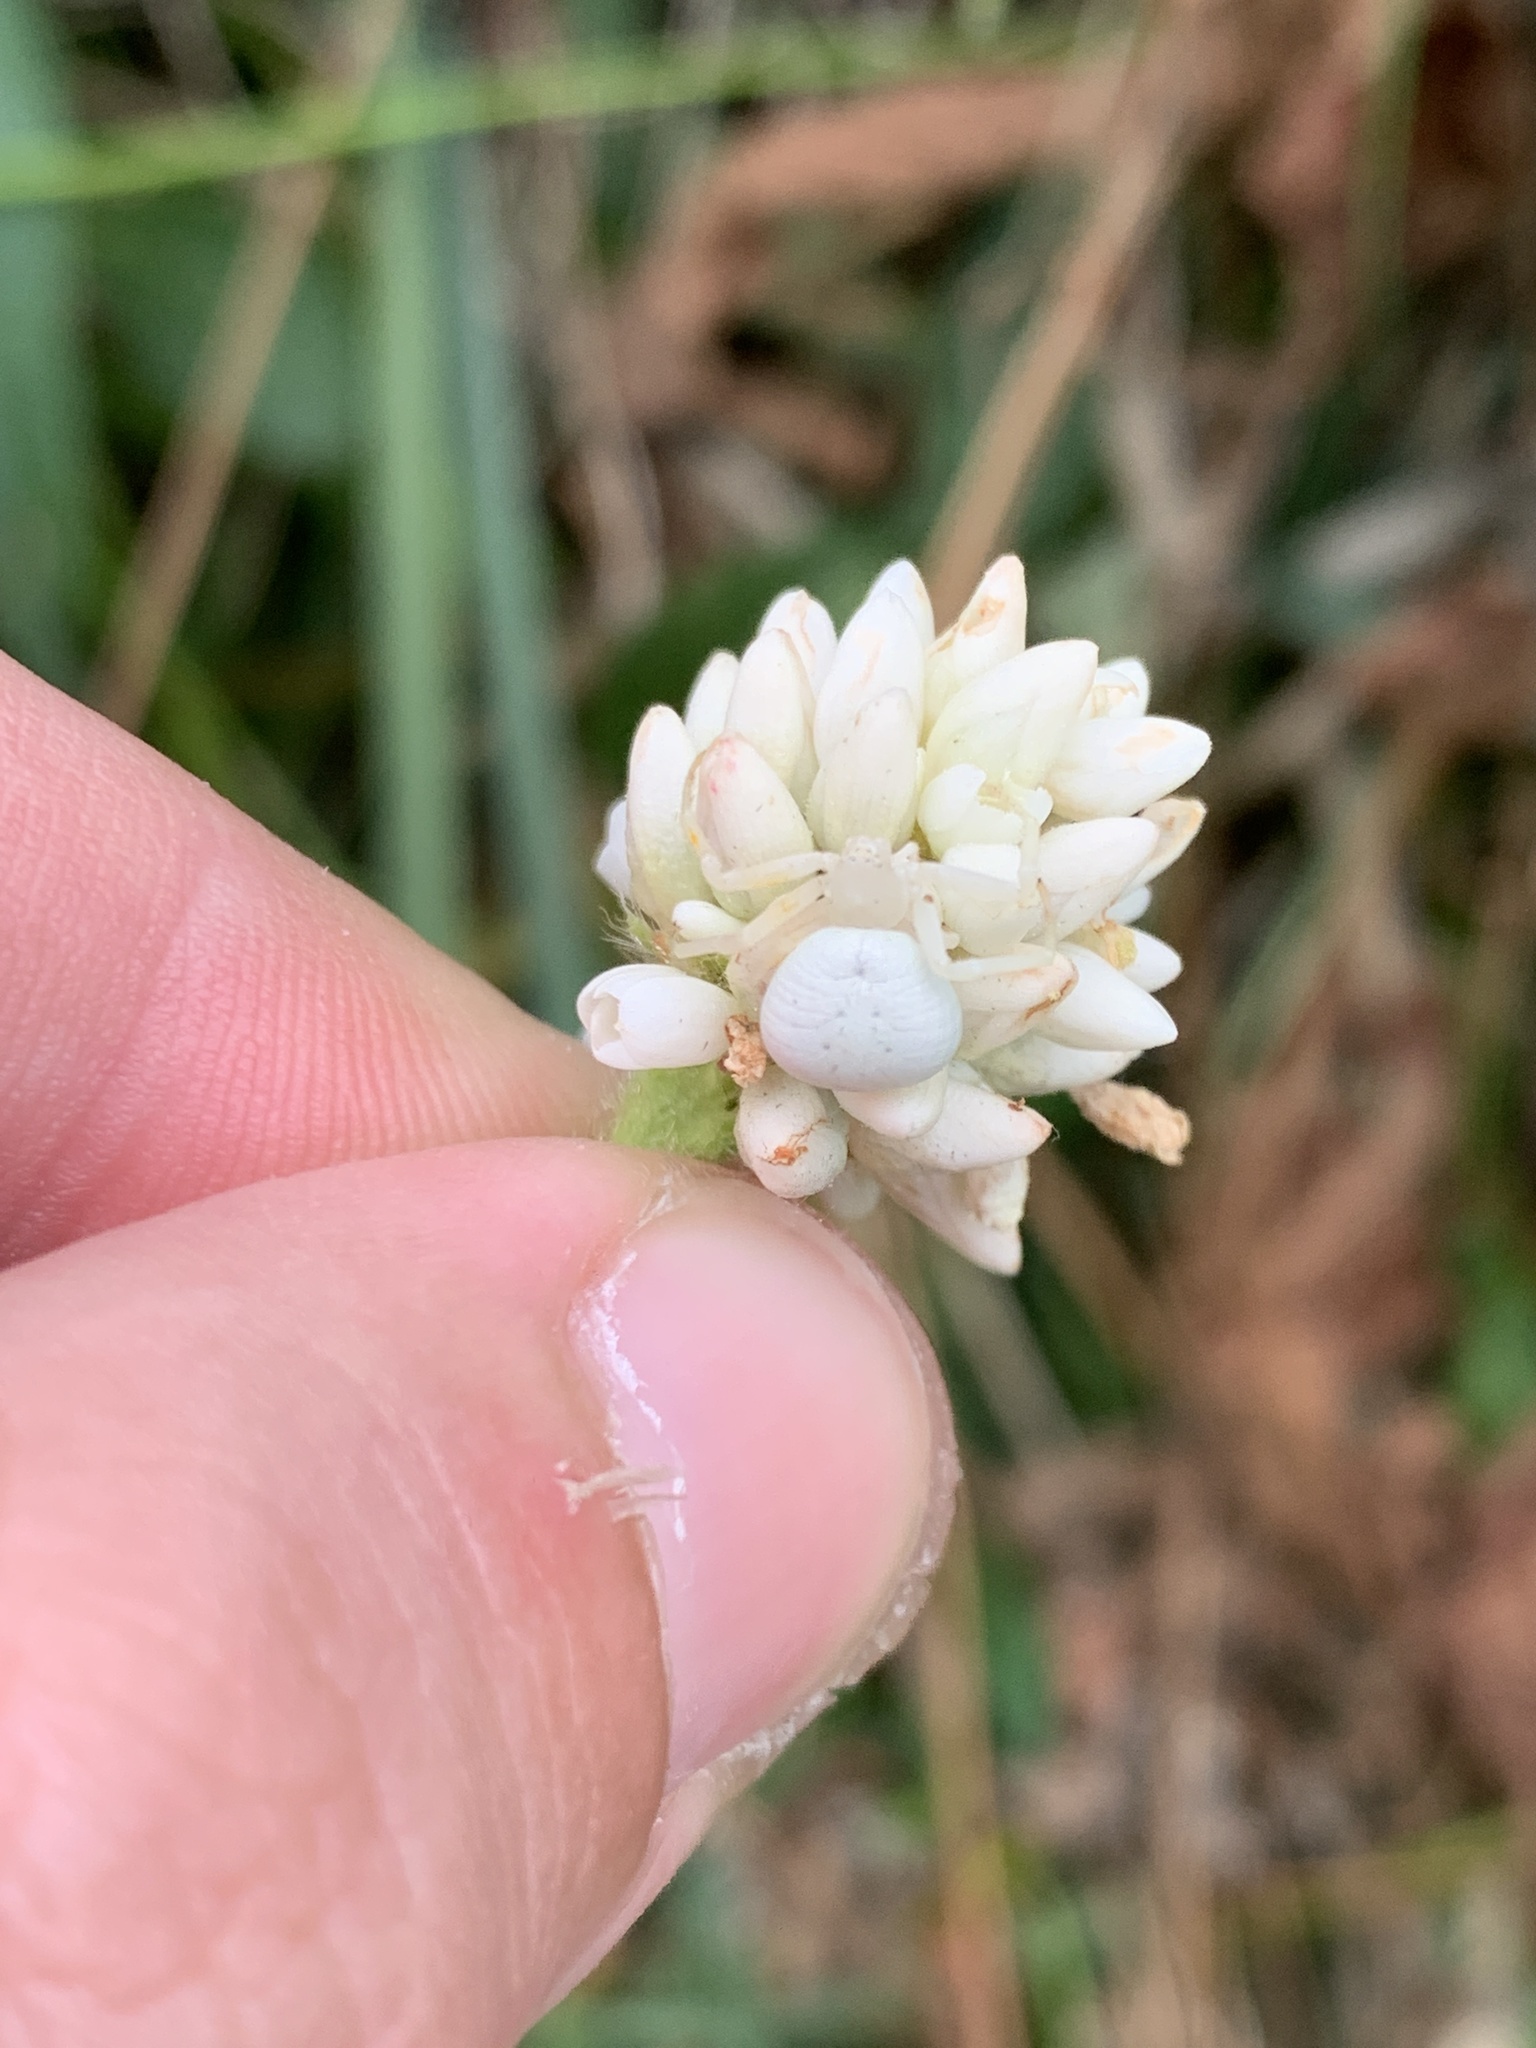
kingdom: Animalia
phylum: Arthropoda
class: Arachnida
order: Araneae
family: Thomisidae
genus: Misumenops
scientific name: Misumenops
